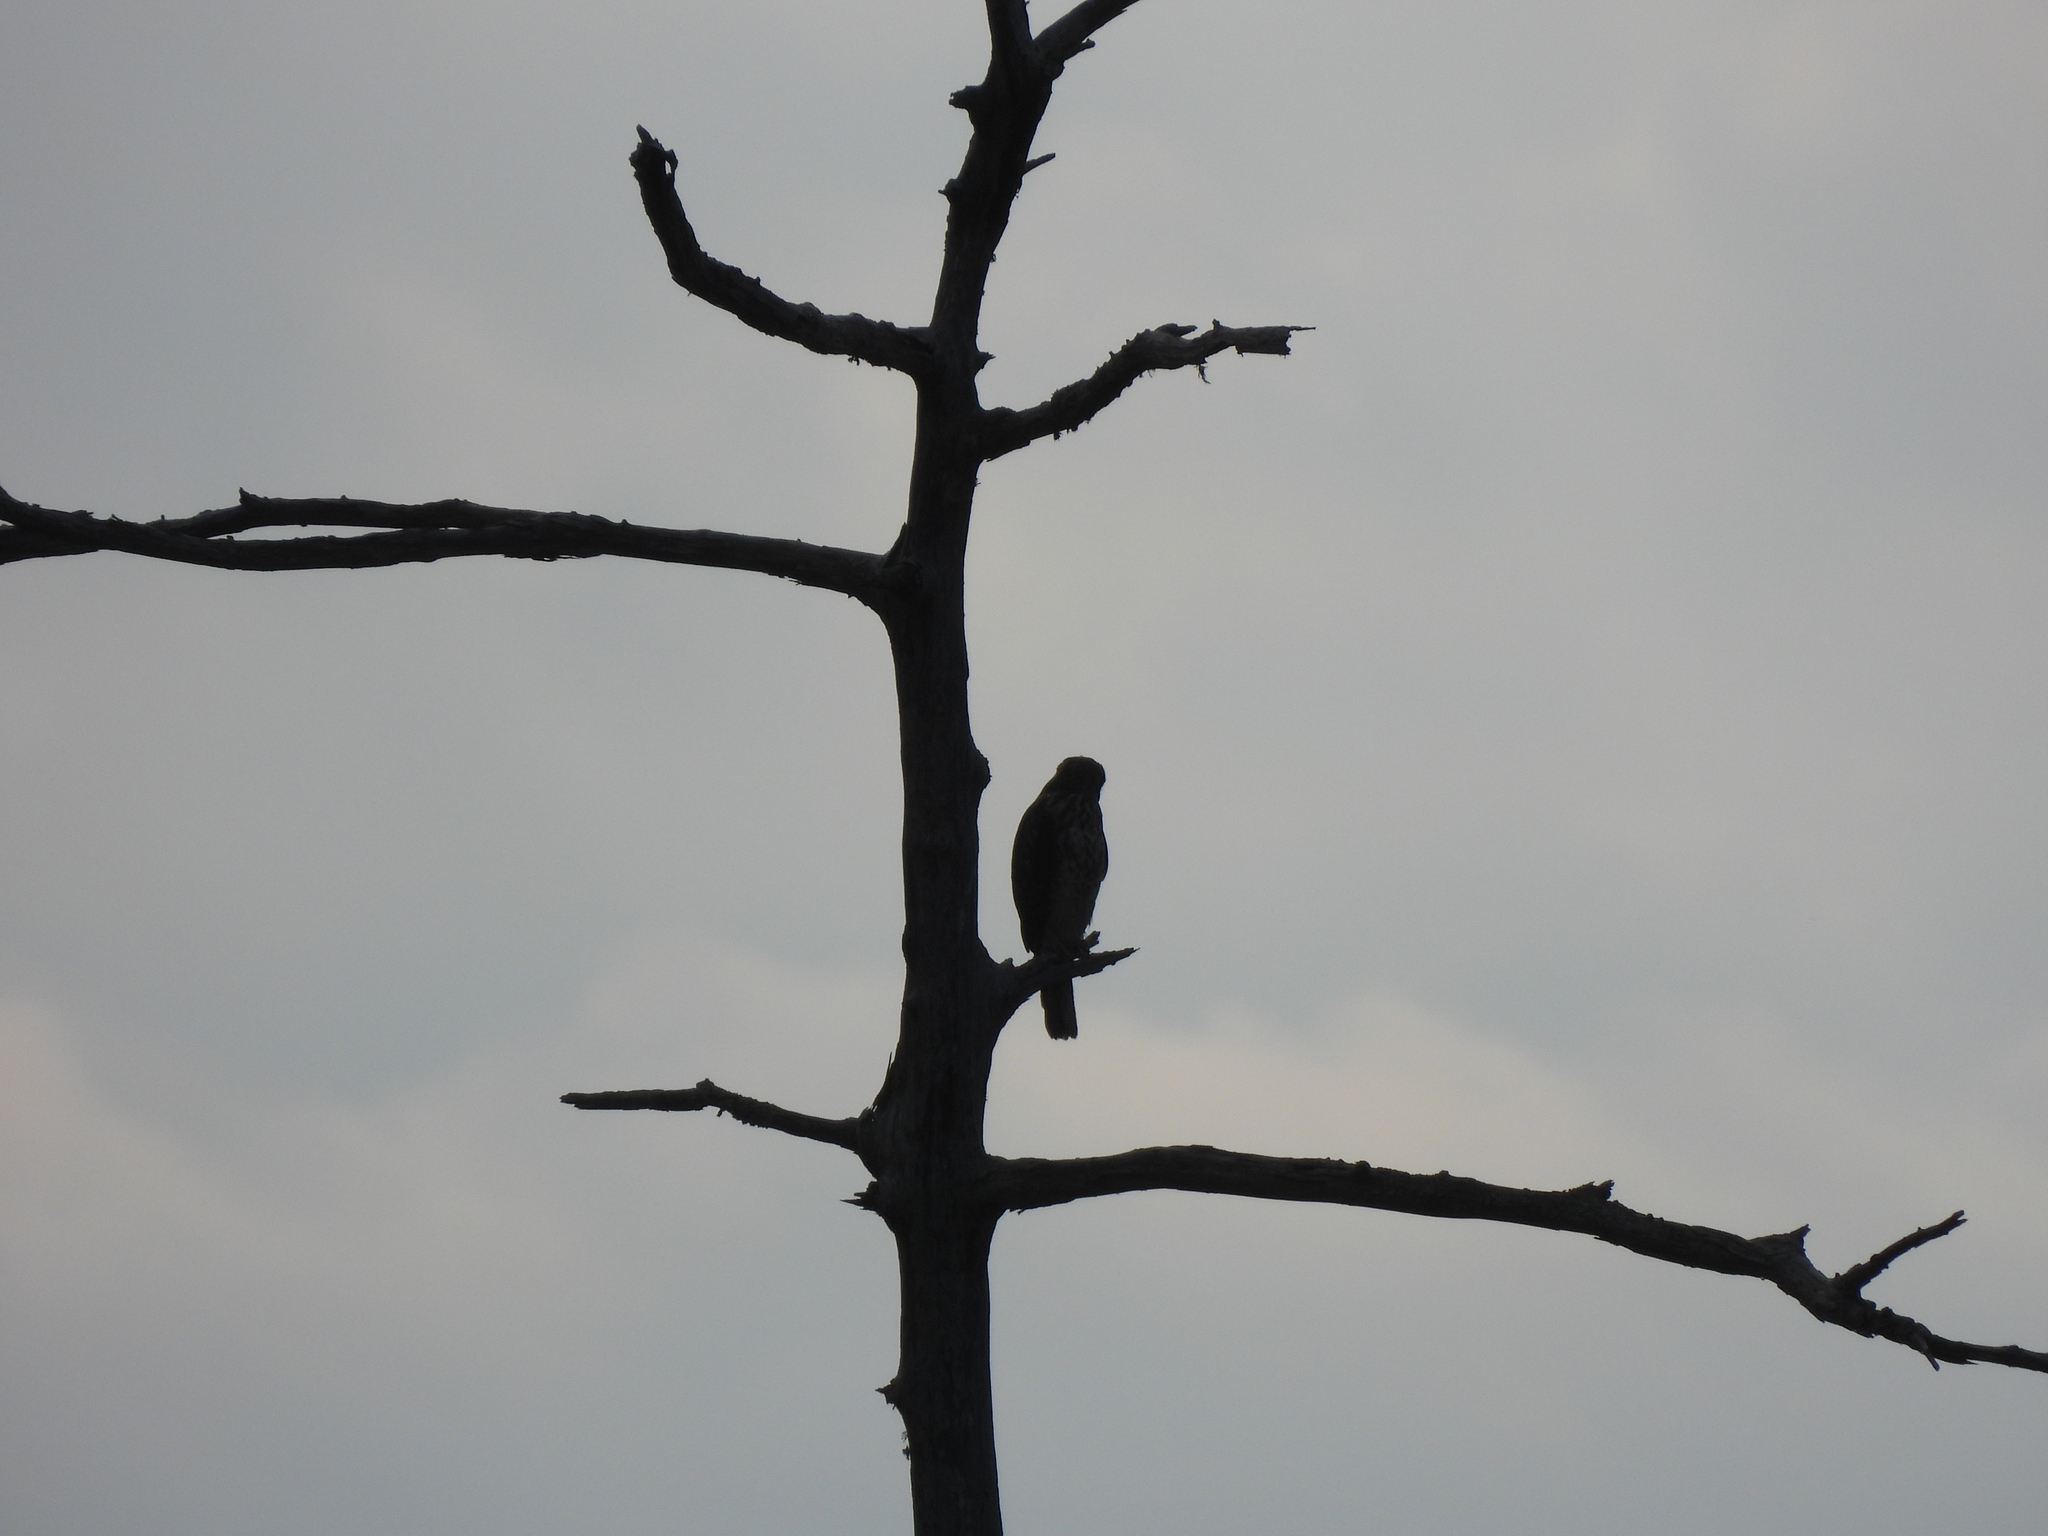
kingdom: Animalia
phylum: Chordata
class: Aves
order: Accipitriformes
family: Accipitridae
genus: Buteo
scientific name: Buteo lineatus
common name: Red-shouldered hawk
